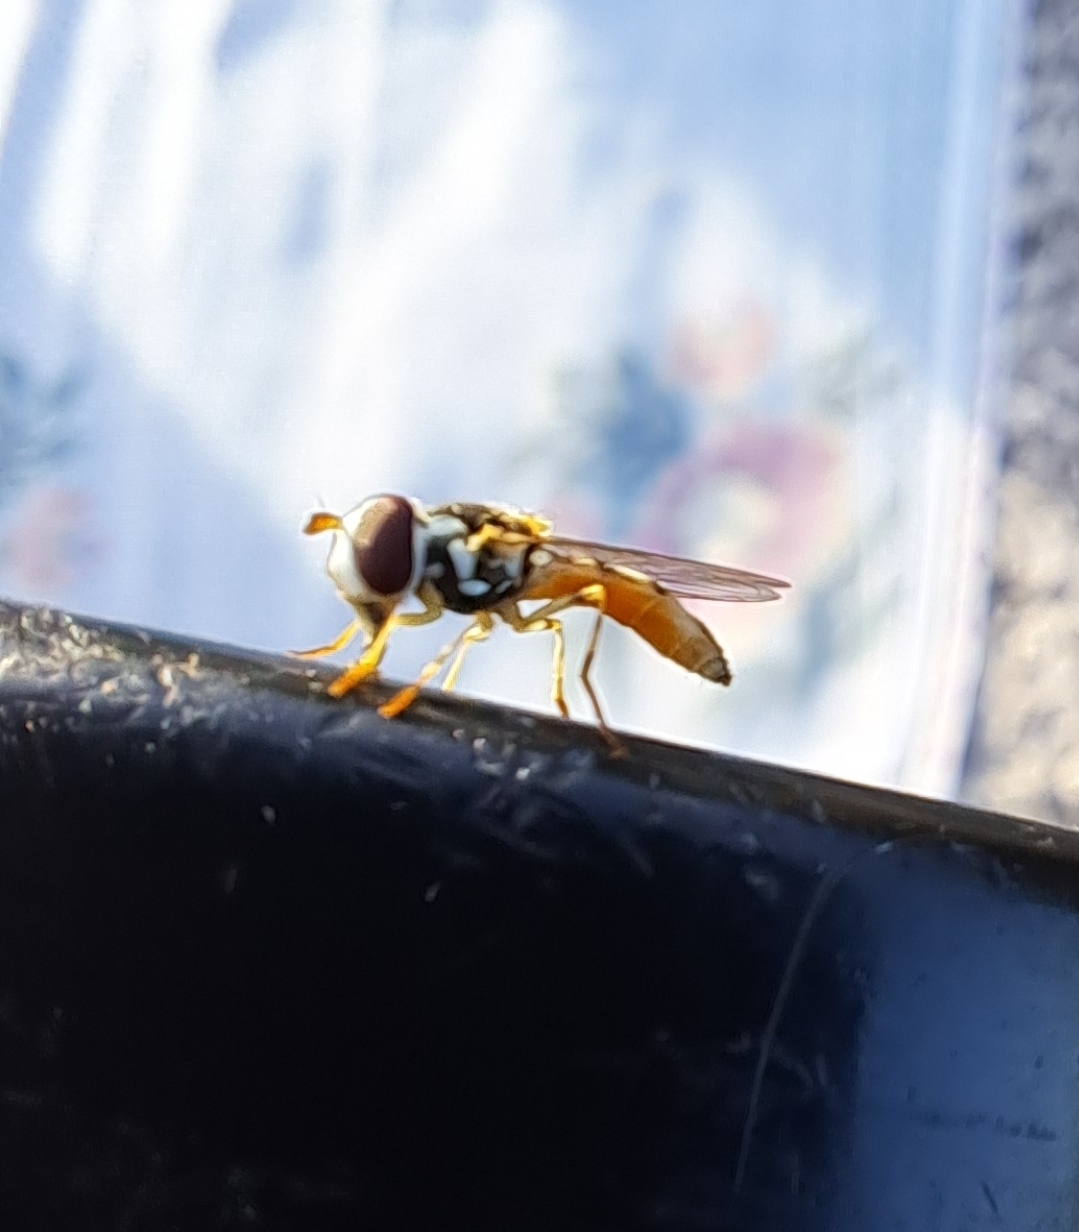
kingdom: Animalia
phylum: Arthropoda
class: Insecta
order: Diptera
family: Syrphidae
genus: Toxomerus
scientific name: Toxomerus politus
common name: Maize calligrapher
